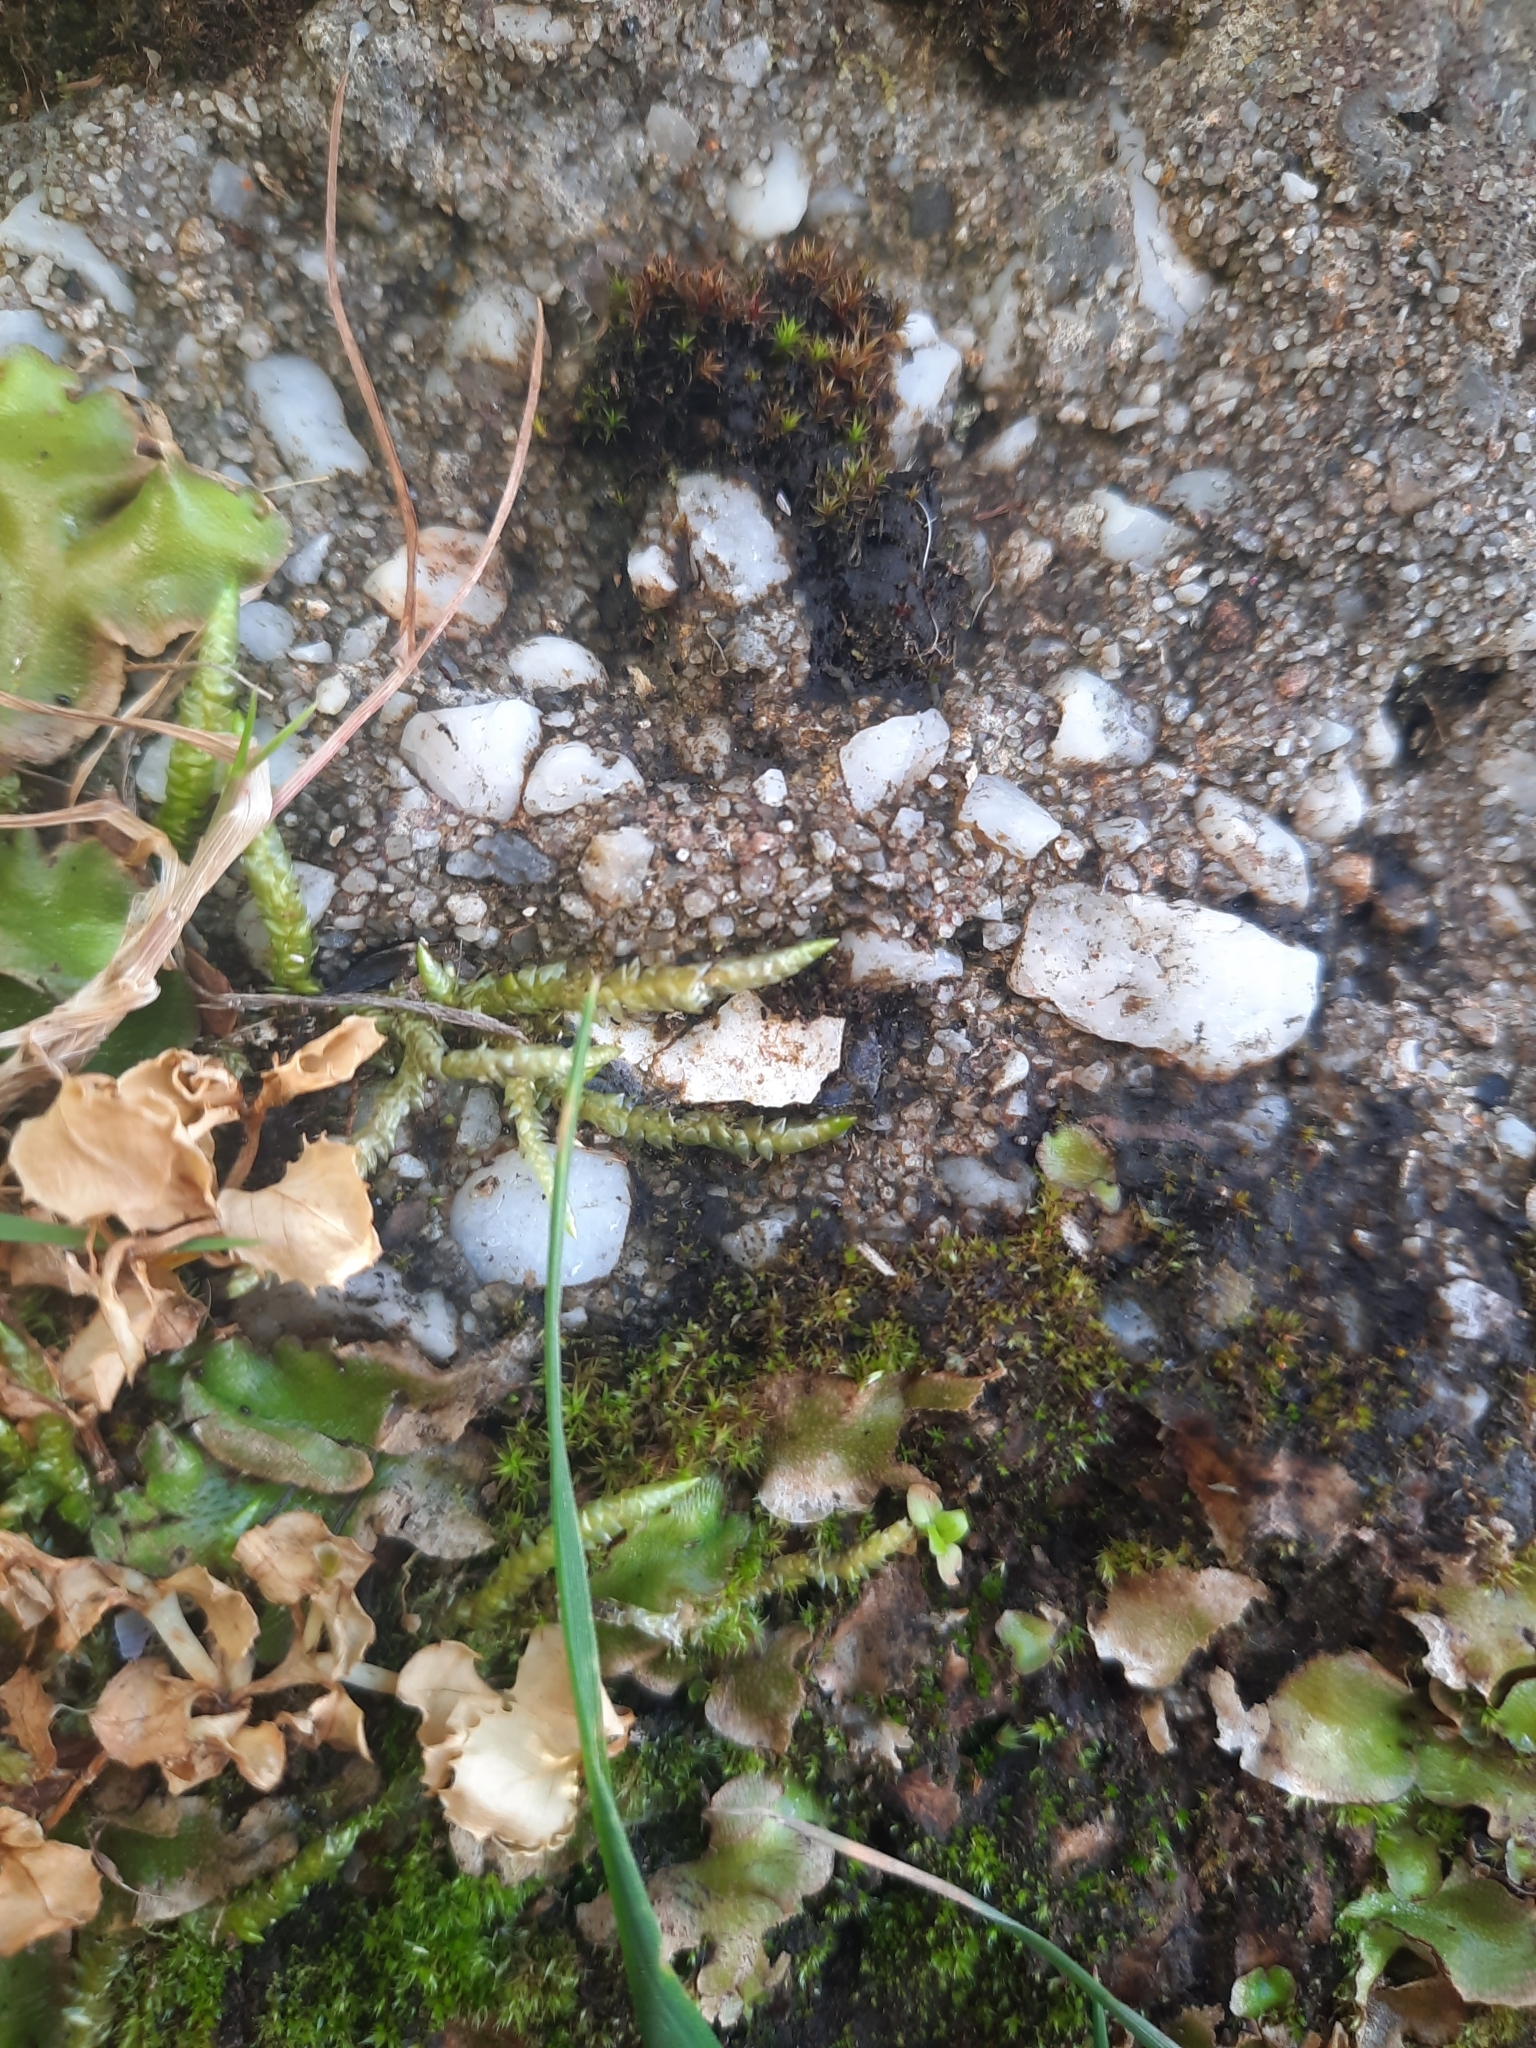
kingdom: Plantae
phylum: Bryophyta
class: Bryopsida
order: Hypnales
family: Acrocladiaceae
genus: Acrocladium
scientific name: Acrocladium chlamydophyllum
